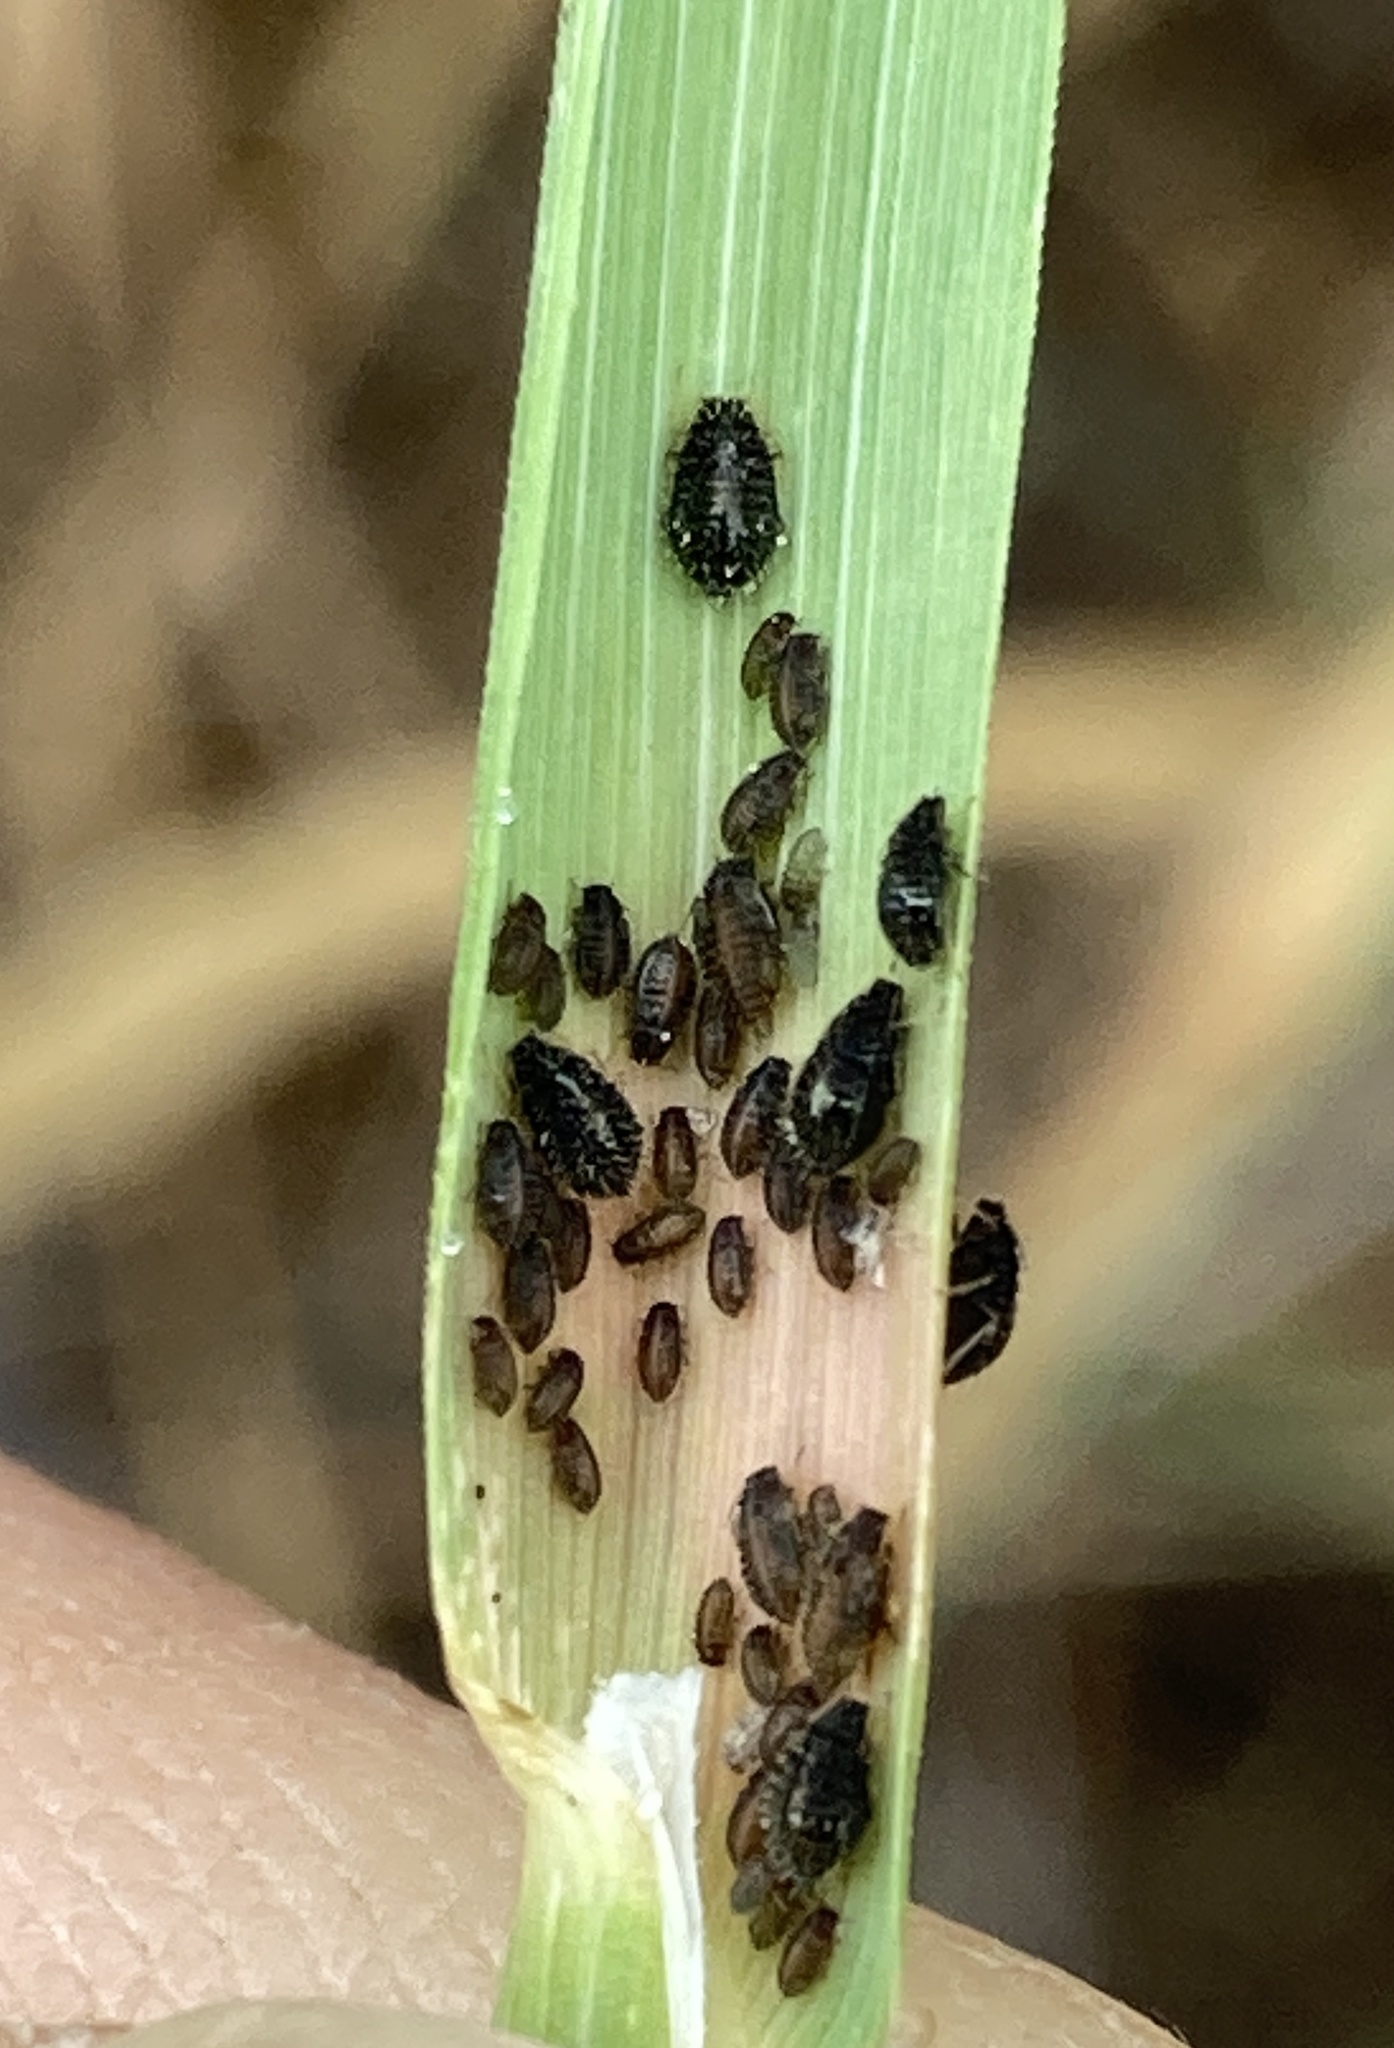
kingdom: Animalia
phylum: Arthropoda
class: Insecta
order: Hemiptera
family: Aphididae
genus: Sipha
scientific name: Sipha maydis
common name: Aphid
